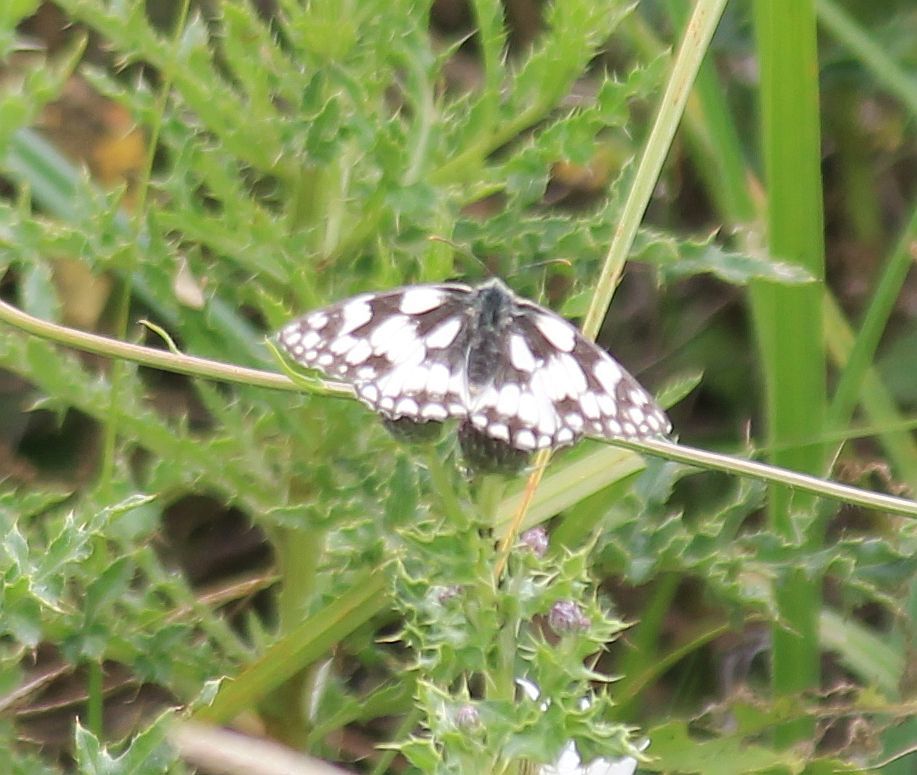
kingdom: Animalia
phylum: Arthropoda
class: Insecta
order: Lepidoptera
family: Nymphalidae
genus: Melanargia
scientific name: Melanargia galathea
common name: Marbled white
